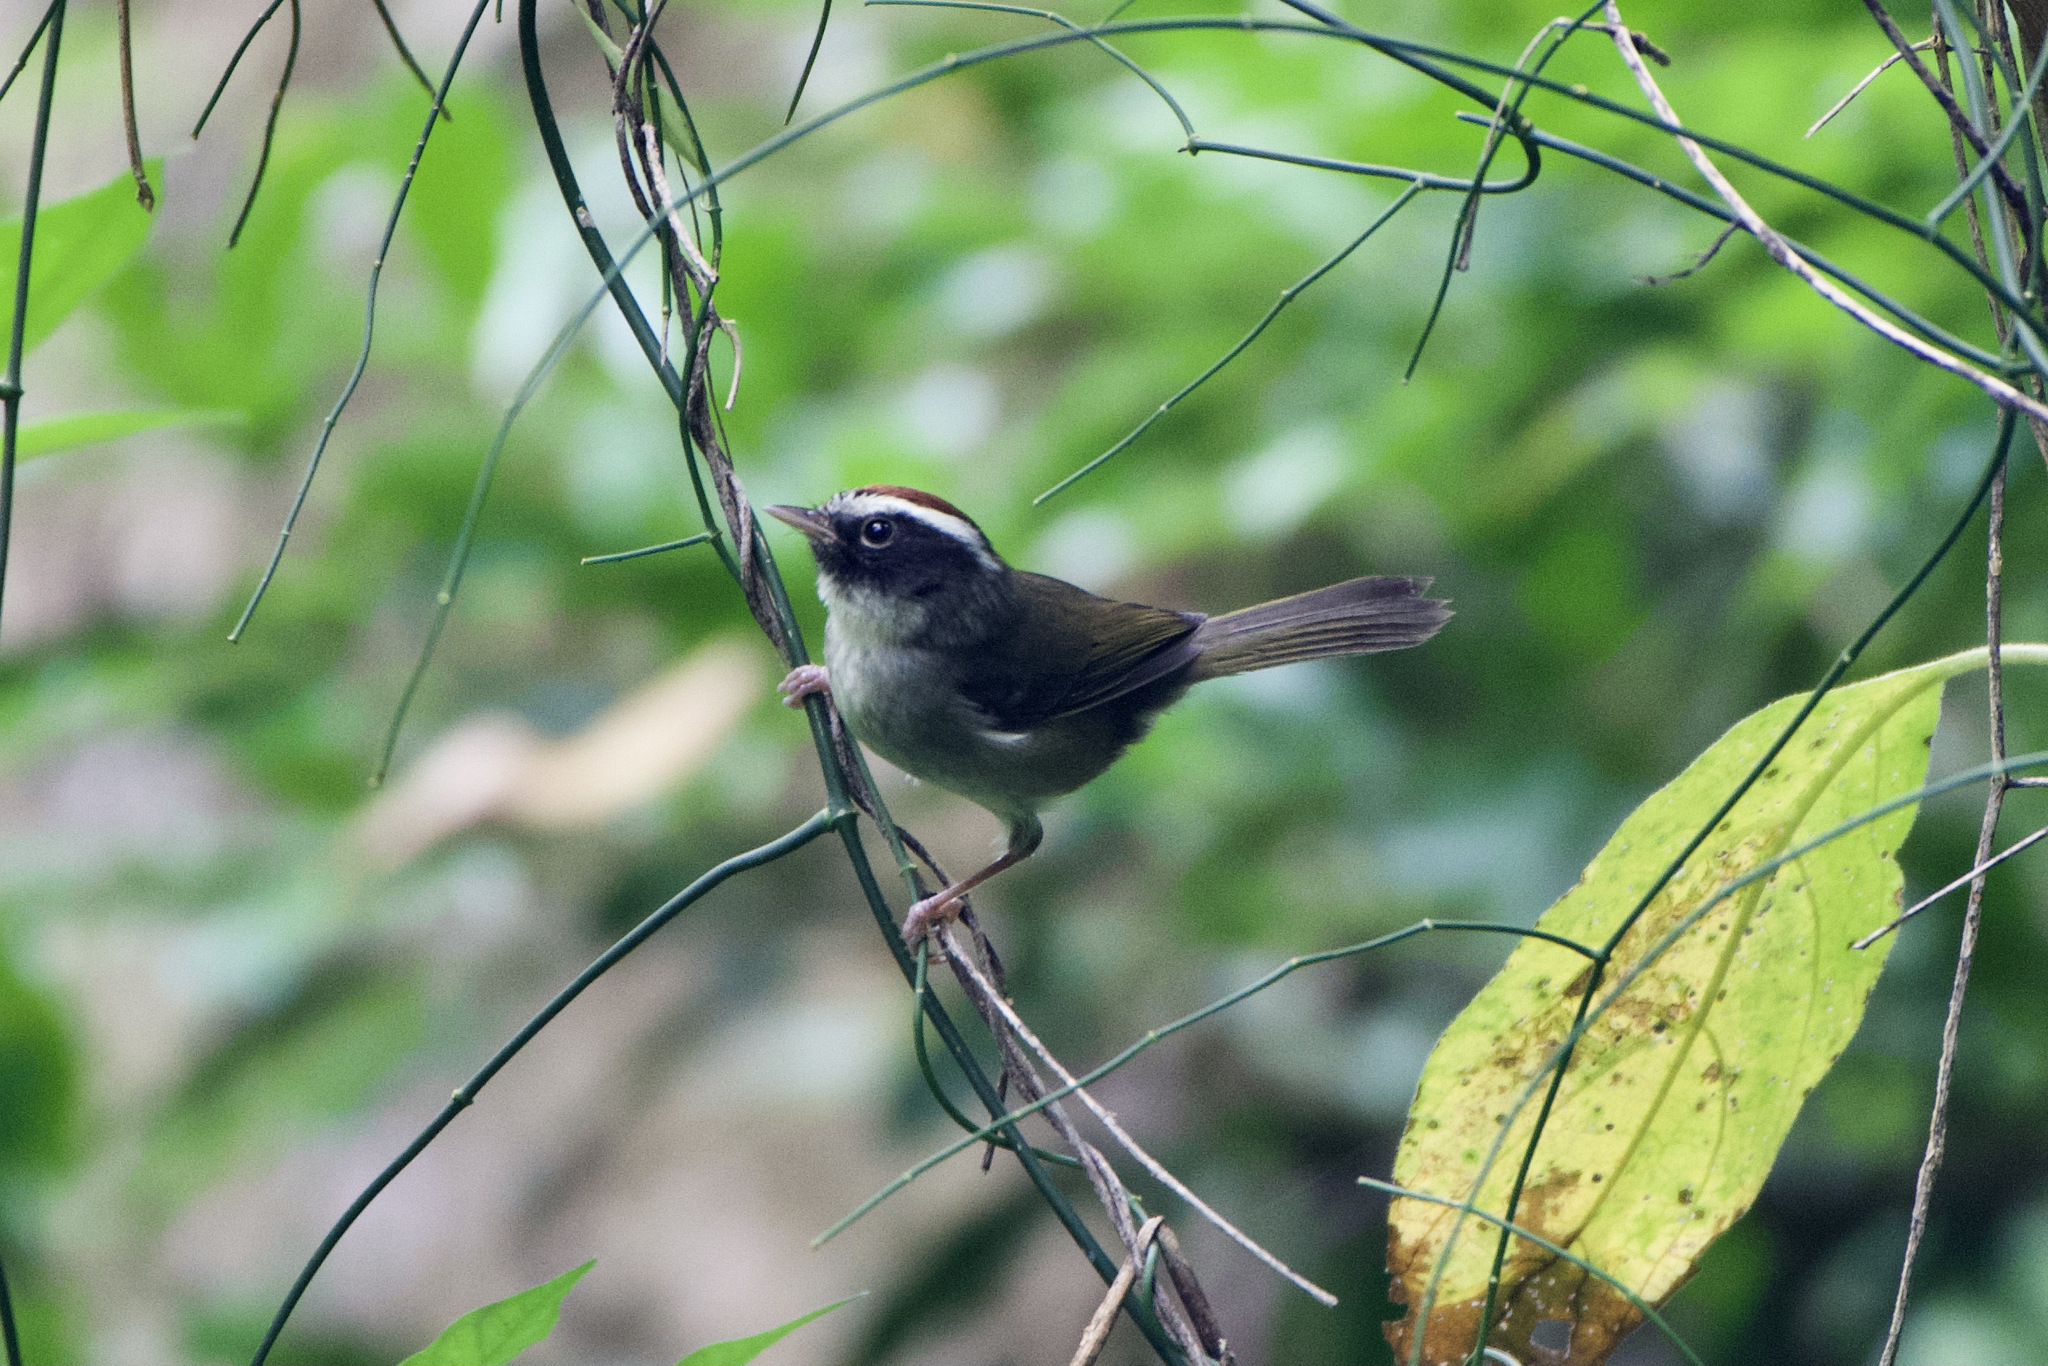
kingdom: Animalia
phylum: Chordata
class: Aves
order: Passeriformes
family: Parulidae
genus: Basileuterus
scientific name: Basileuterus melanogenys
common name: Black-cheeked warbler
